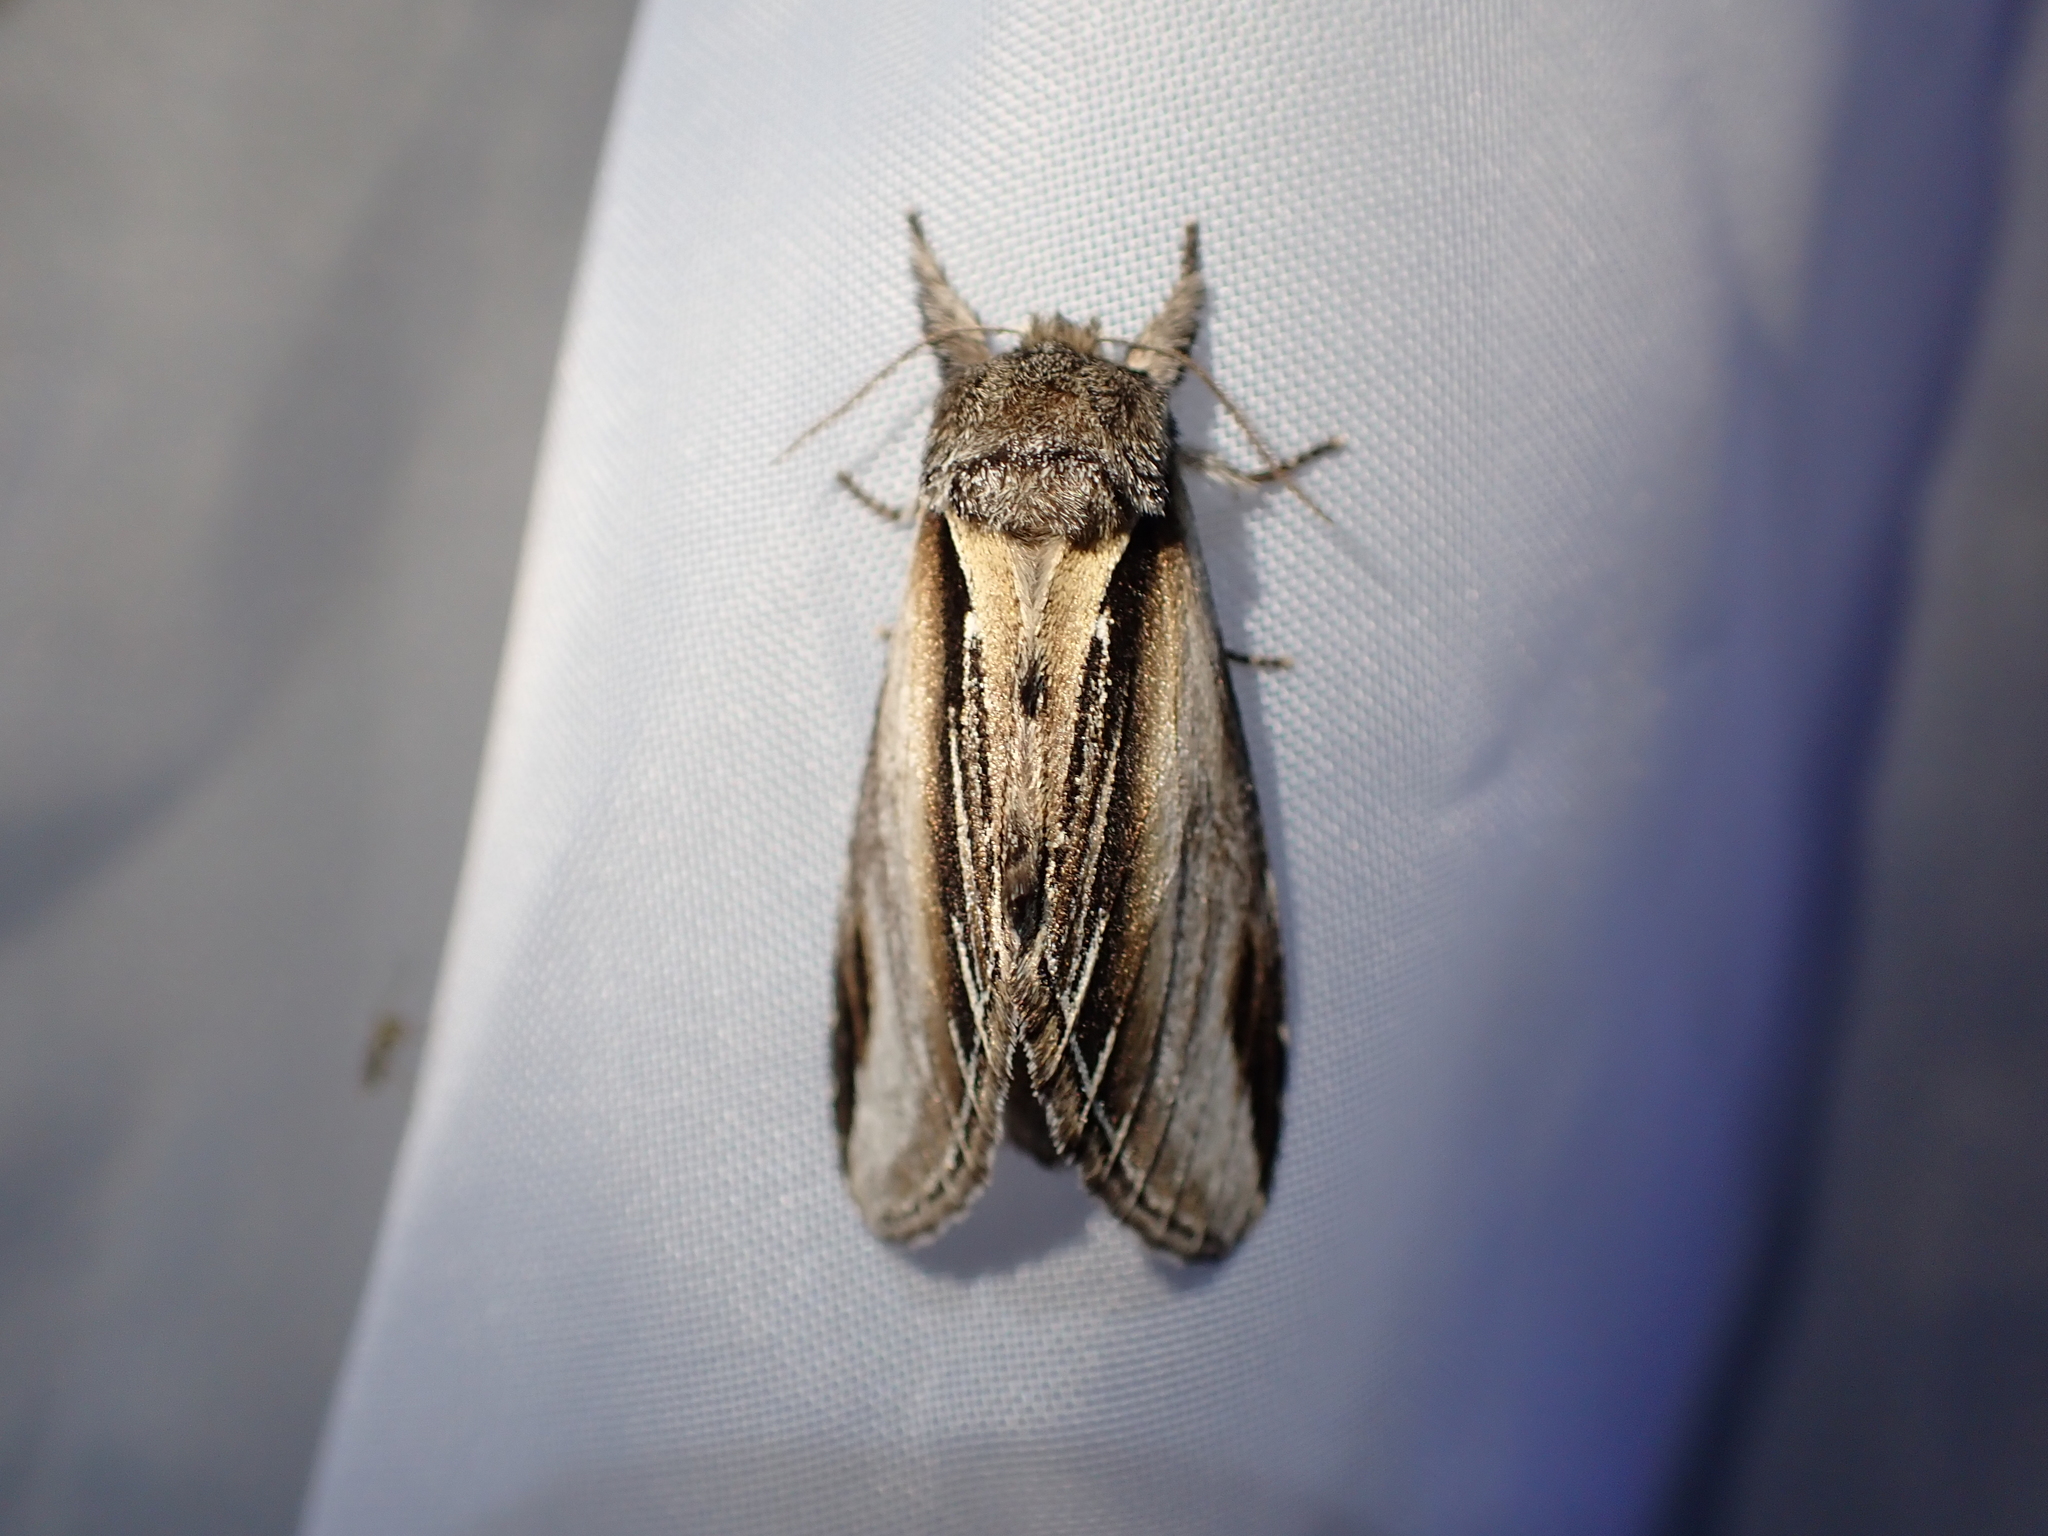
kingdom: Animalia
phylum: Arthropoda
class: Insecta
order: Lepidoptera
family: Notodontidae
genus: Pheosia
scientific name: Pheosia tremula
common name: Swallow prominent
